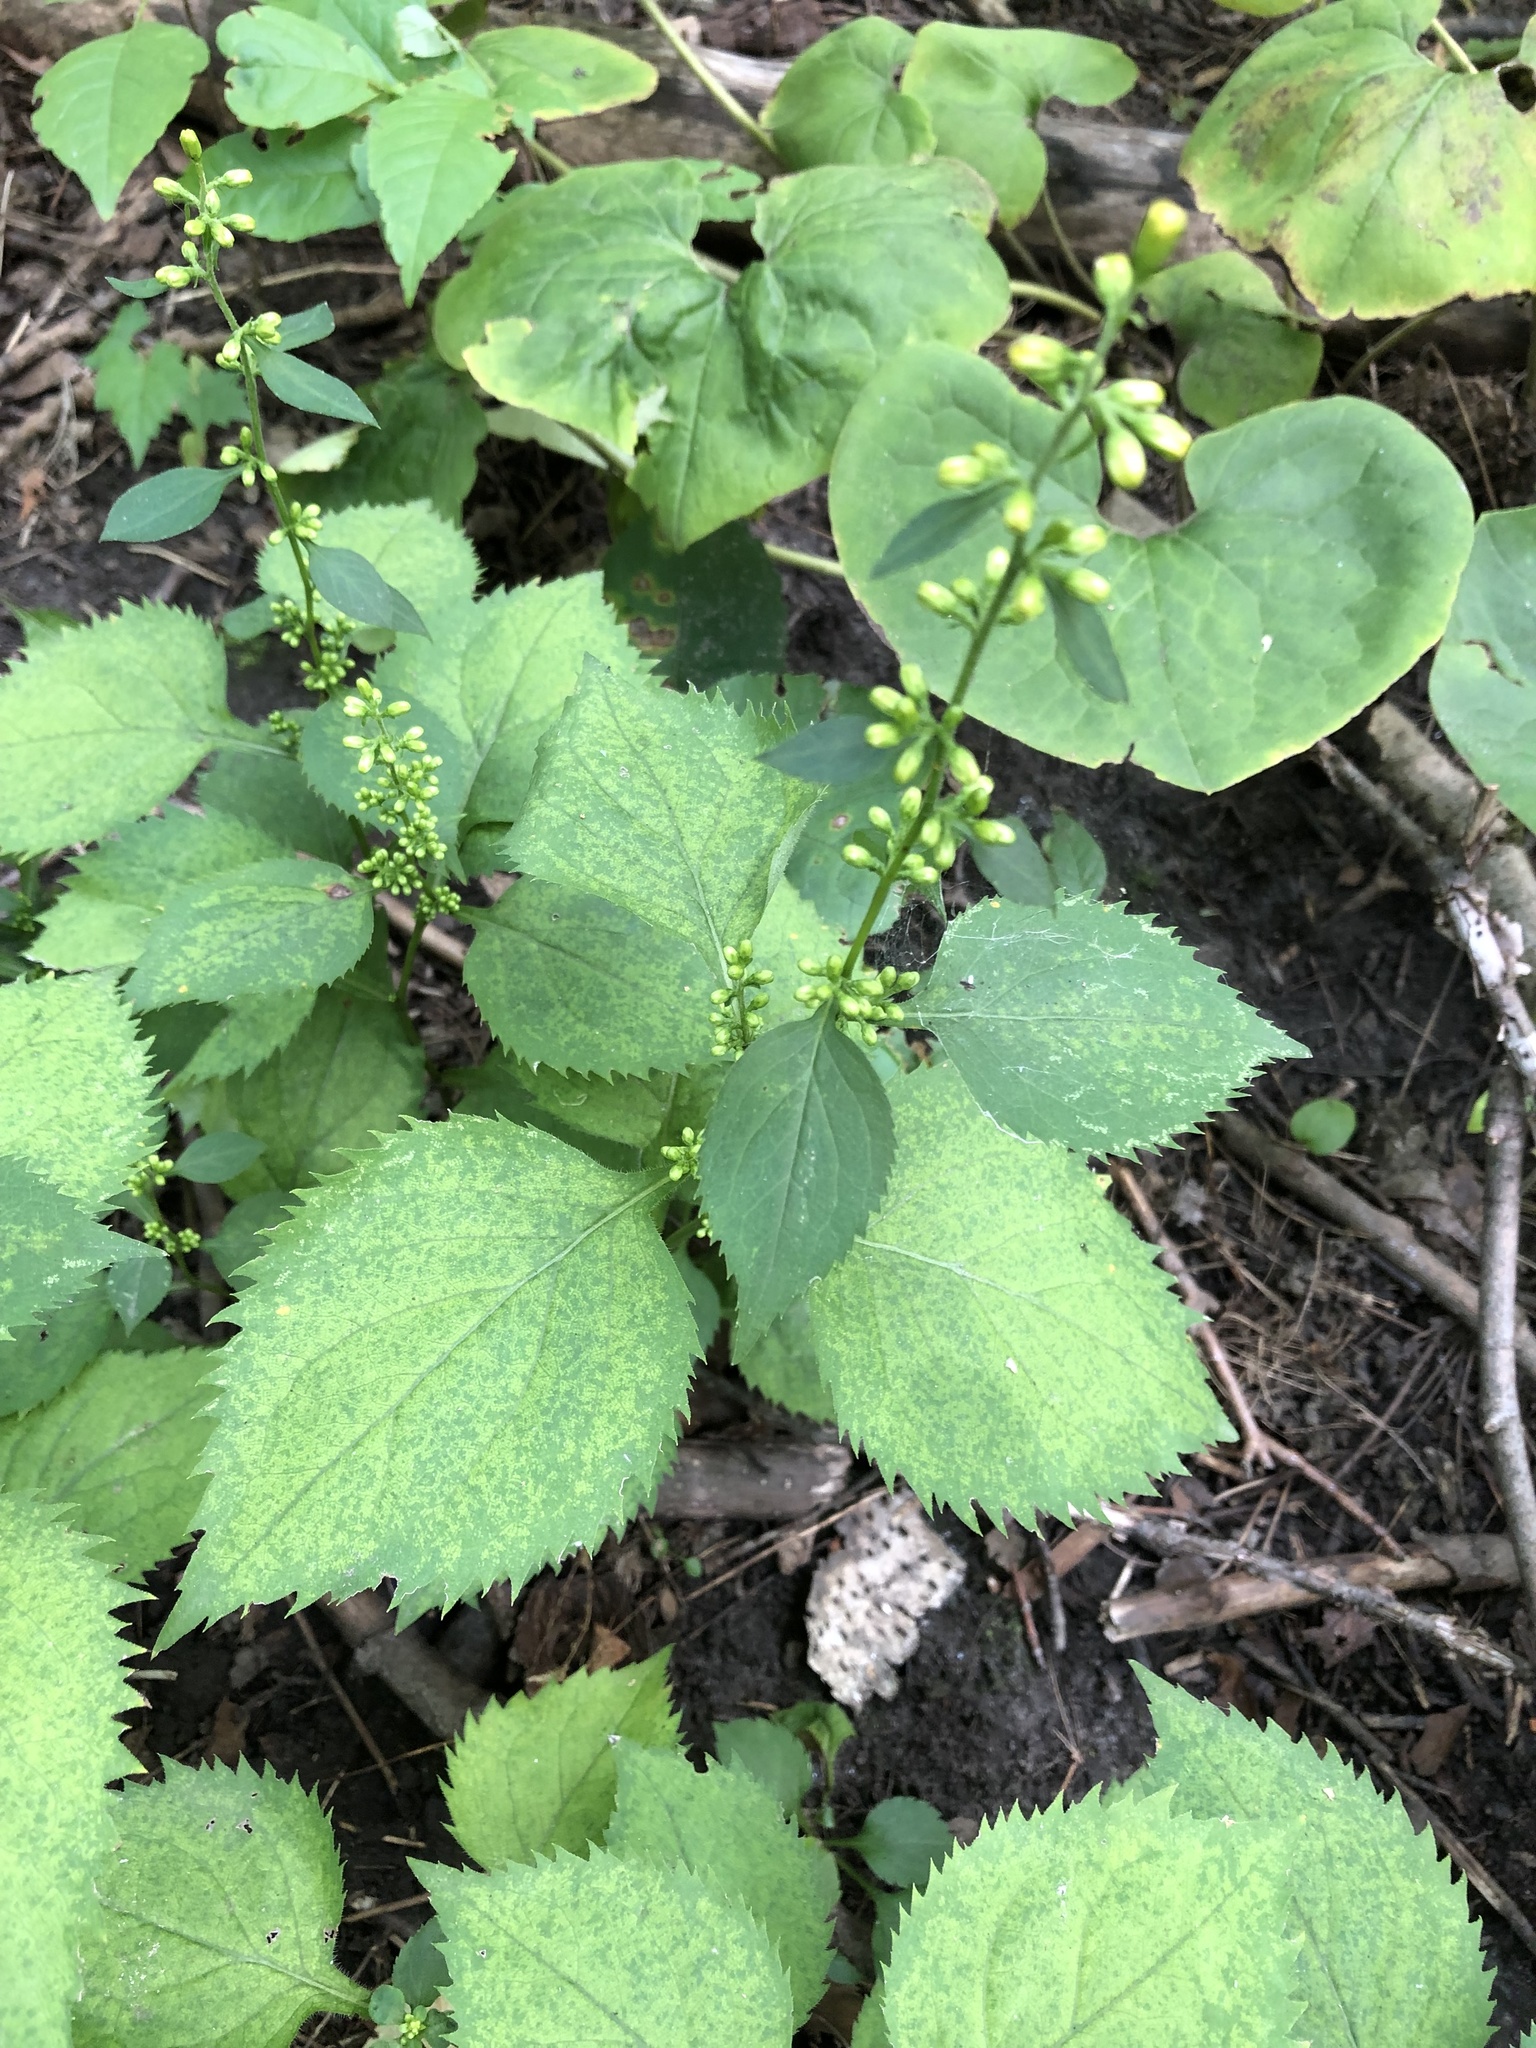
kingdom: Plantae
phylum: Tracheophyta
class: Magnoliopsida
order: Asterales
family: Asteraceae
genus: Solidago
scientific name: Solidago flexicaulis
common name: Zig-zag goldenrod
